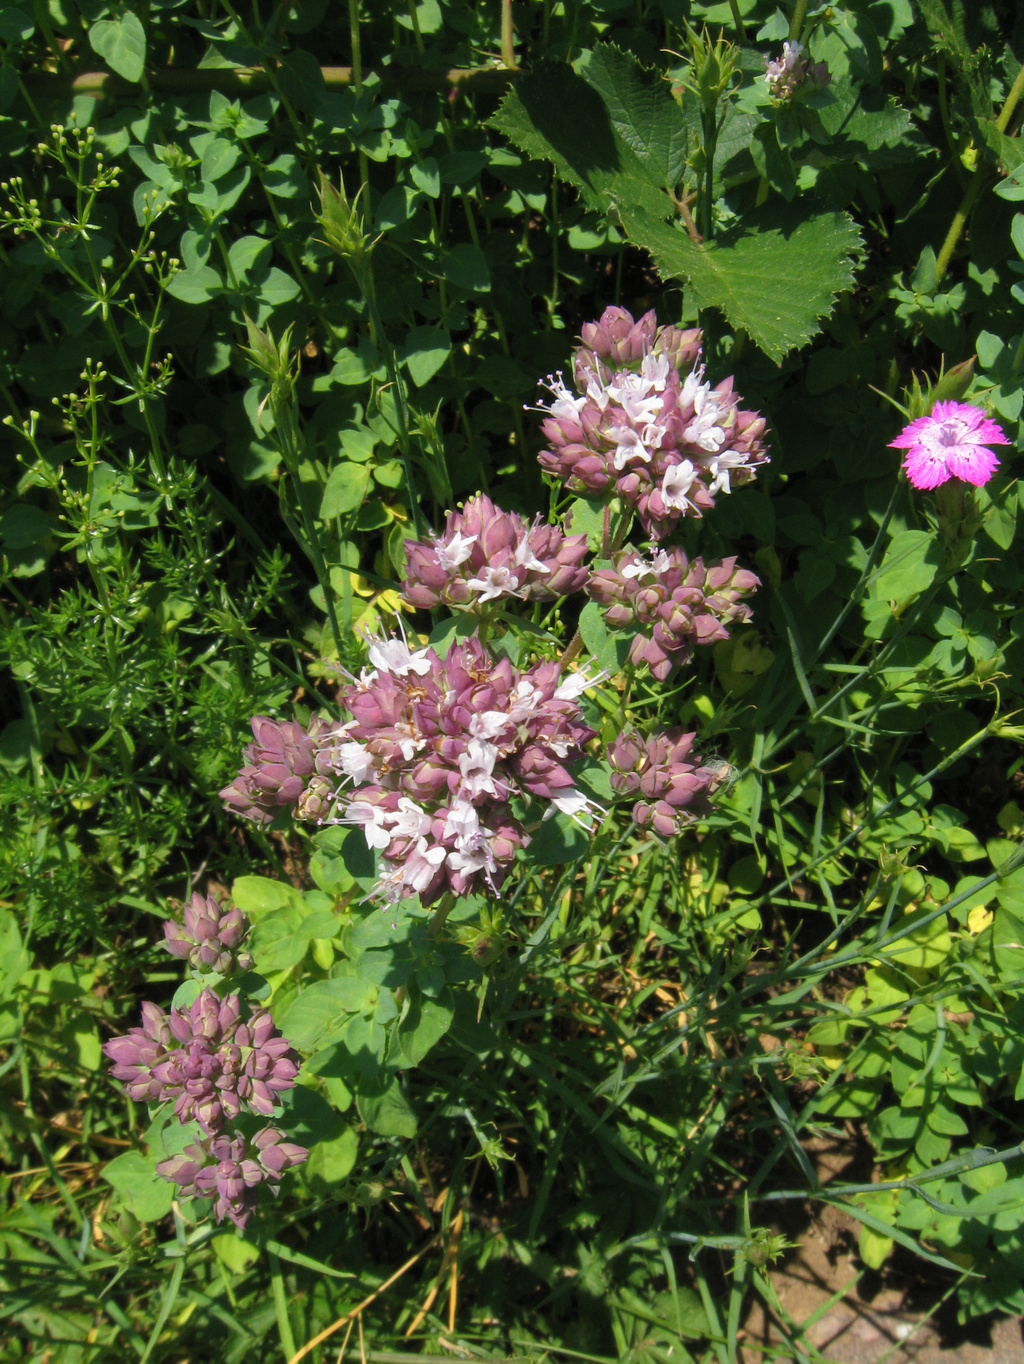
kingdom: Plantae
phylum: Tracheophyta
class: Magnoliopsida
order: Lamiales
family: Lamiaceae
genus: Origanum
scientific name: Origanum vulgare
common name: Wild marjoram
